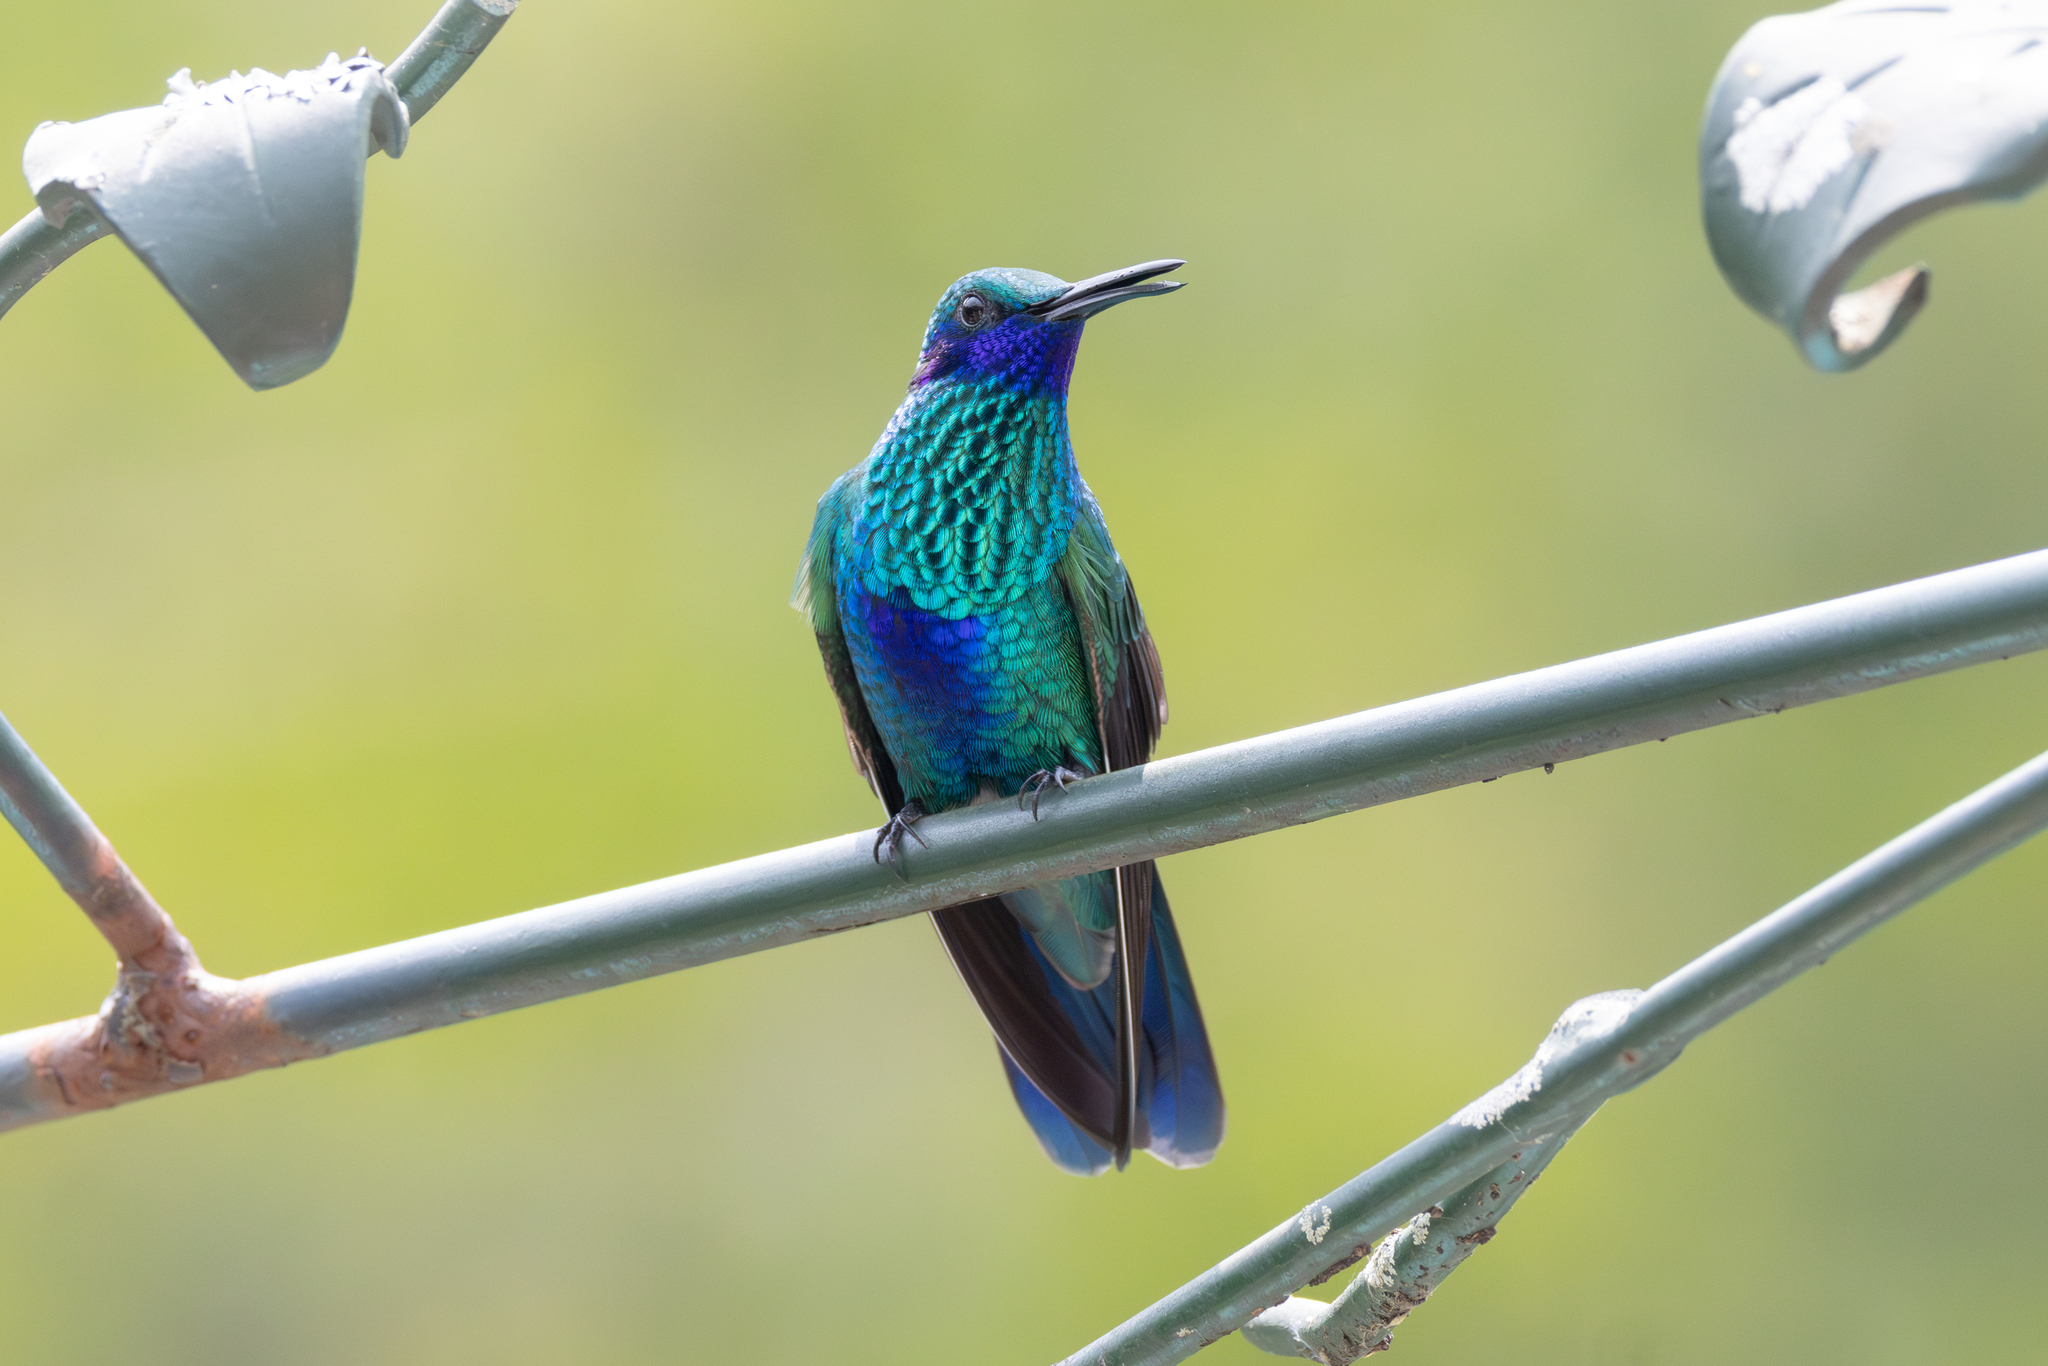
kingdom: Animalia
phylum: Chordata
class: Aves
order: Apodiformes
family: Trochilidae
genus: Colibri
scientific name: Colibri coruscans
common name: Sparkling violetear
